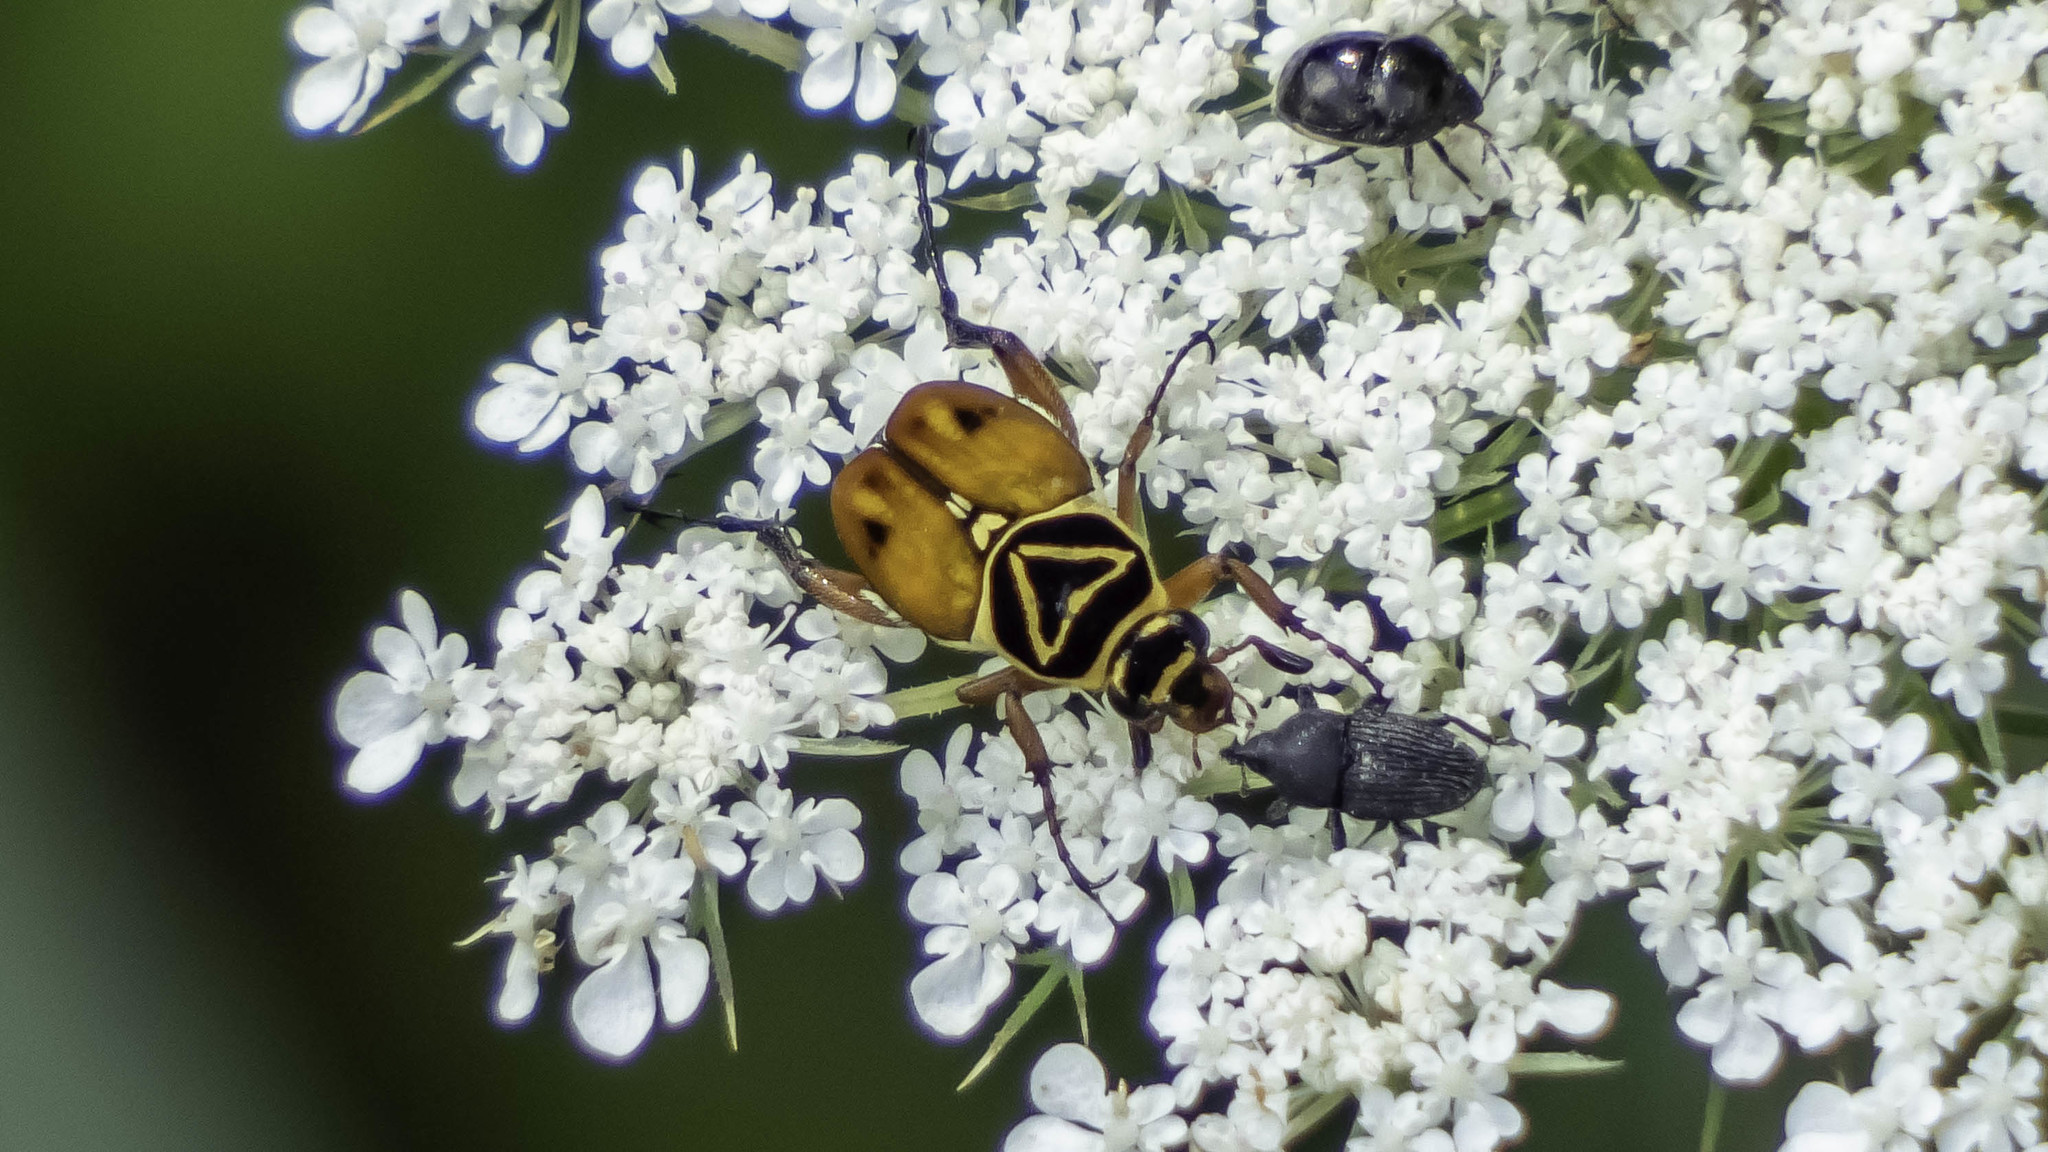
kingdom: Animalia
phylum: Arthropoda
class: Insecta
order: Coleoptera
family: Scarabaeidae
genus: Trigonopeltastes
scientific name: Trigonopeltastes delta
